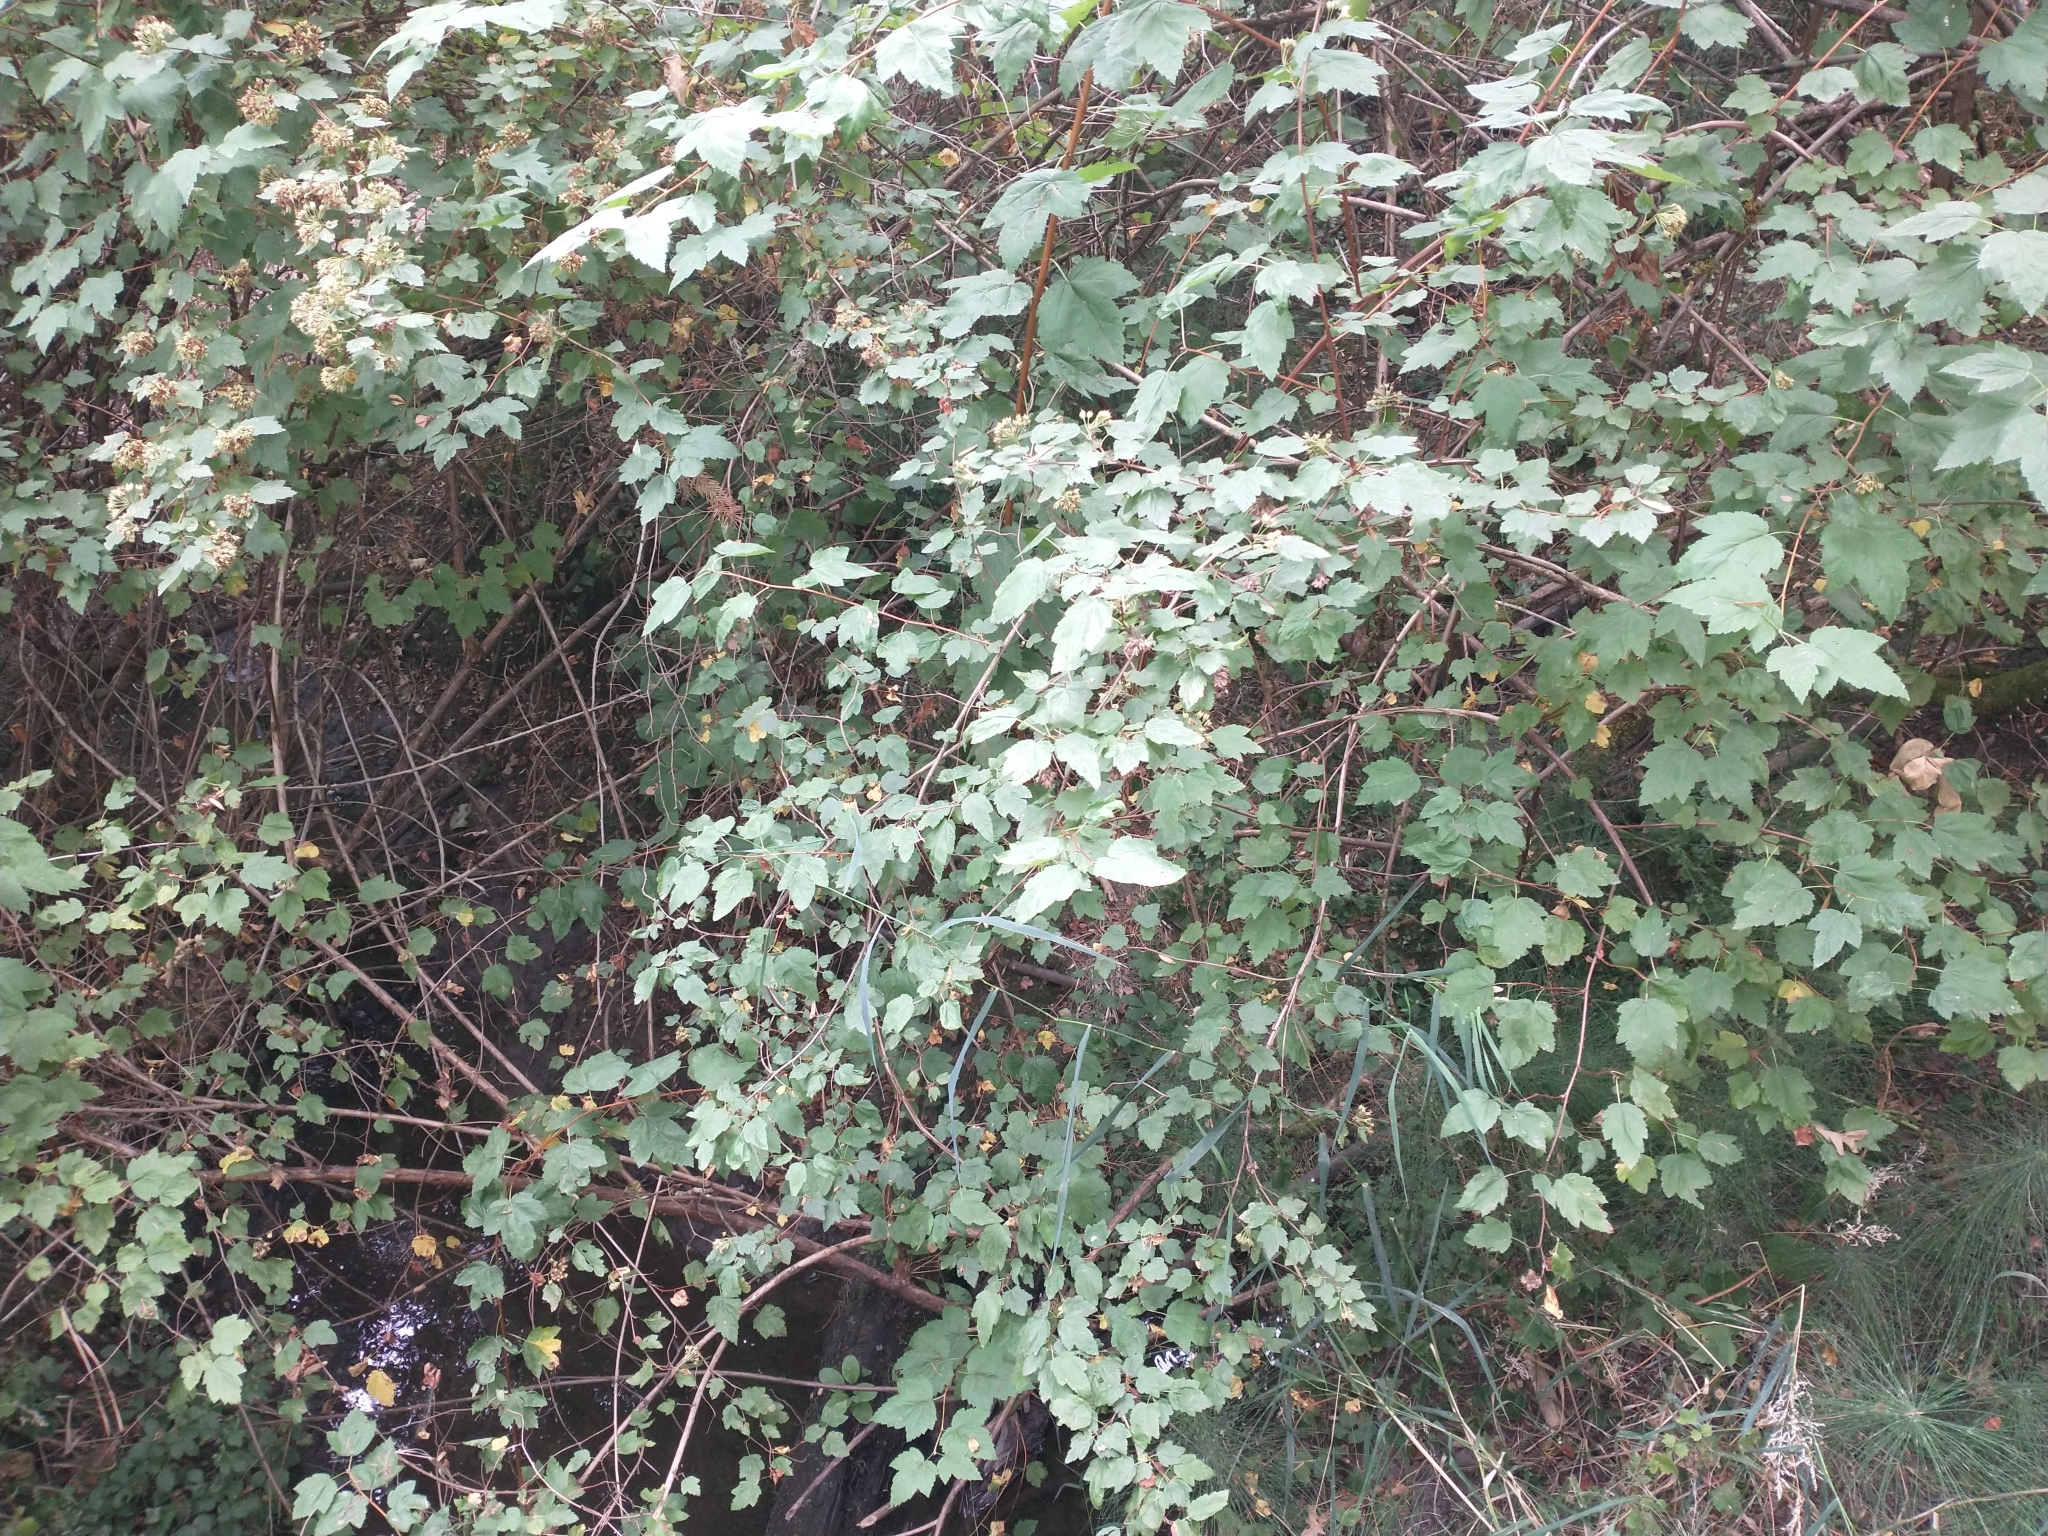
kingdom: Plantae
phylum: Tracheophyta
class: Magnoliopsida
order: Rosales
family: Rosaceae
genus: Physocarpus
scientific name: Physocarpus capitatus
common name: Pacific ninebark
